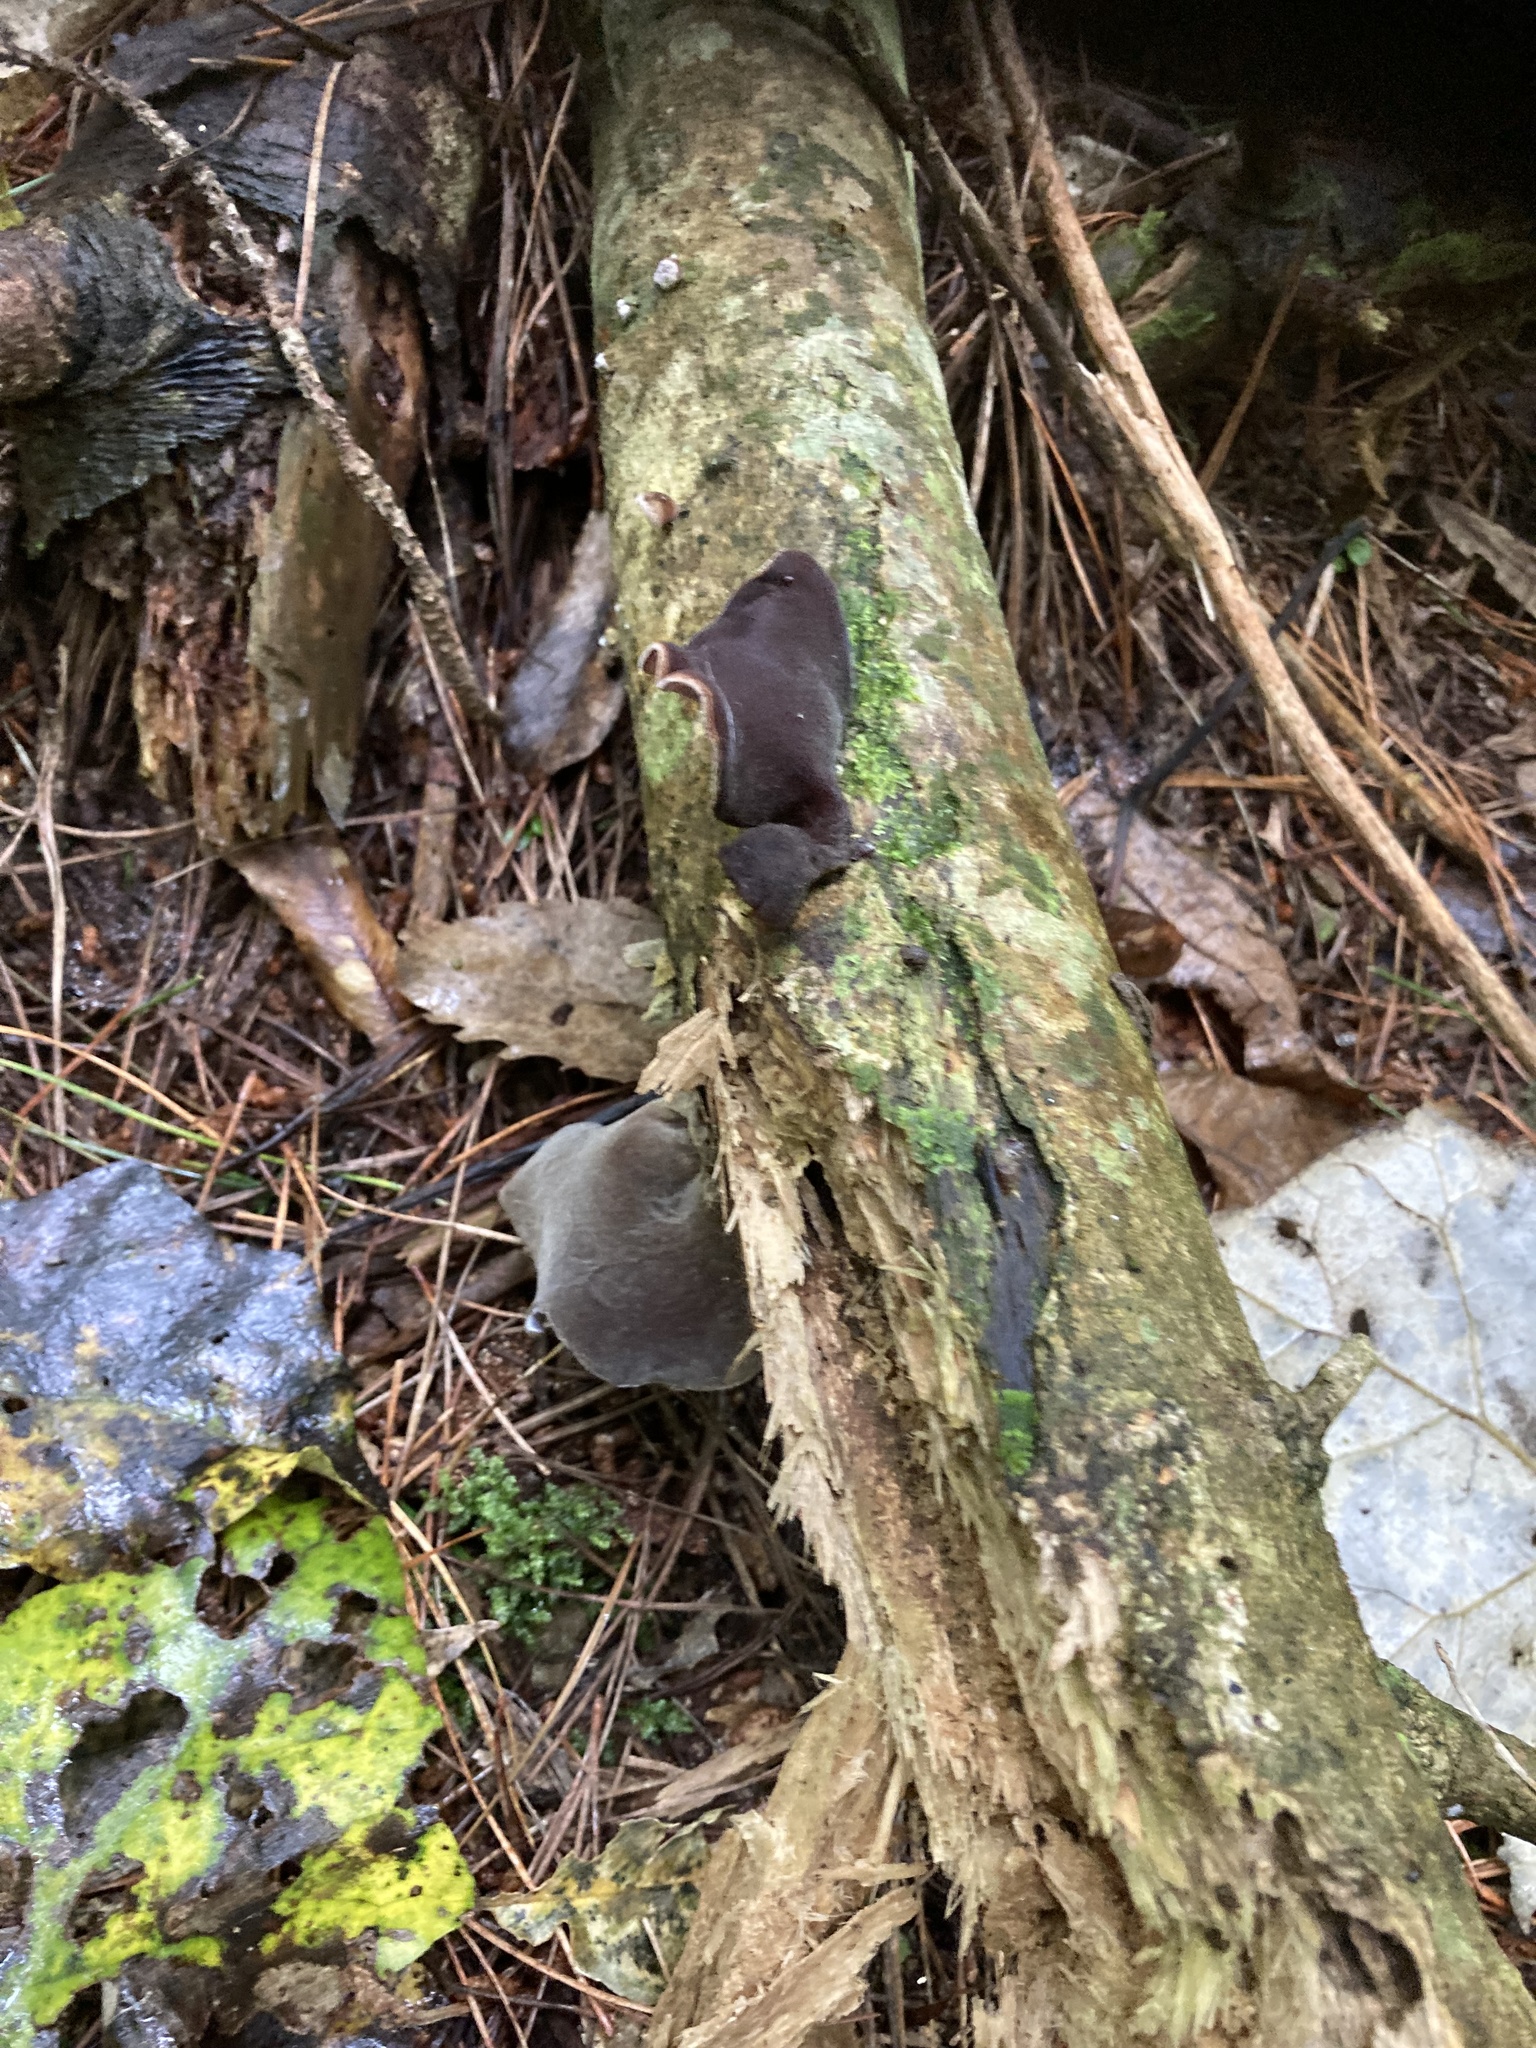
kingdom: Fungi
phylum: Basidiomycota
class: Agaricomycetes
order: Auriculariales
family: Auriculariaceae
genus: Auricularia
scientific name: Auricularia cornea
